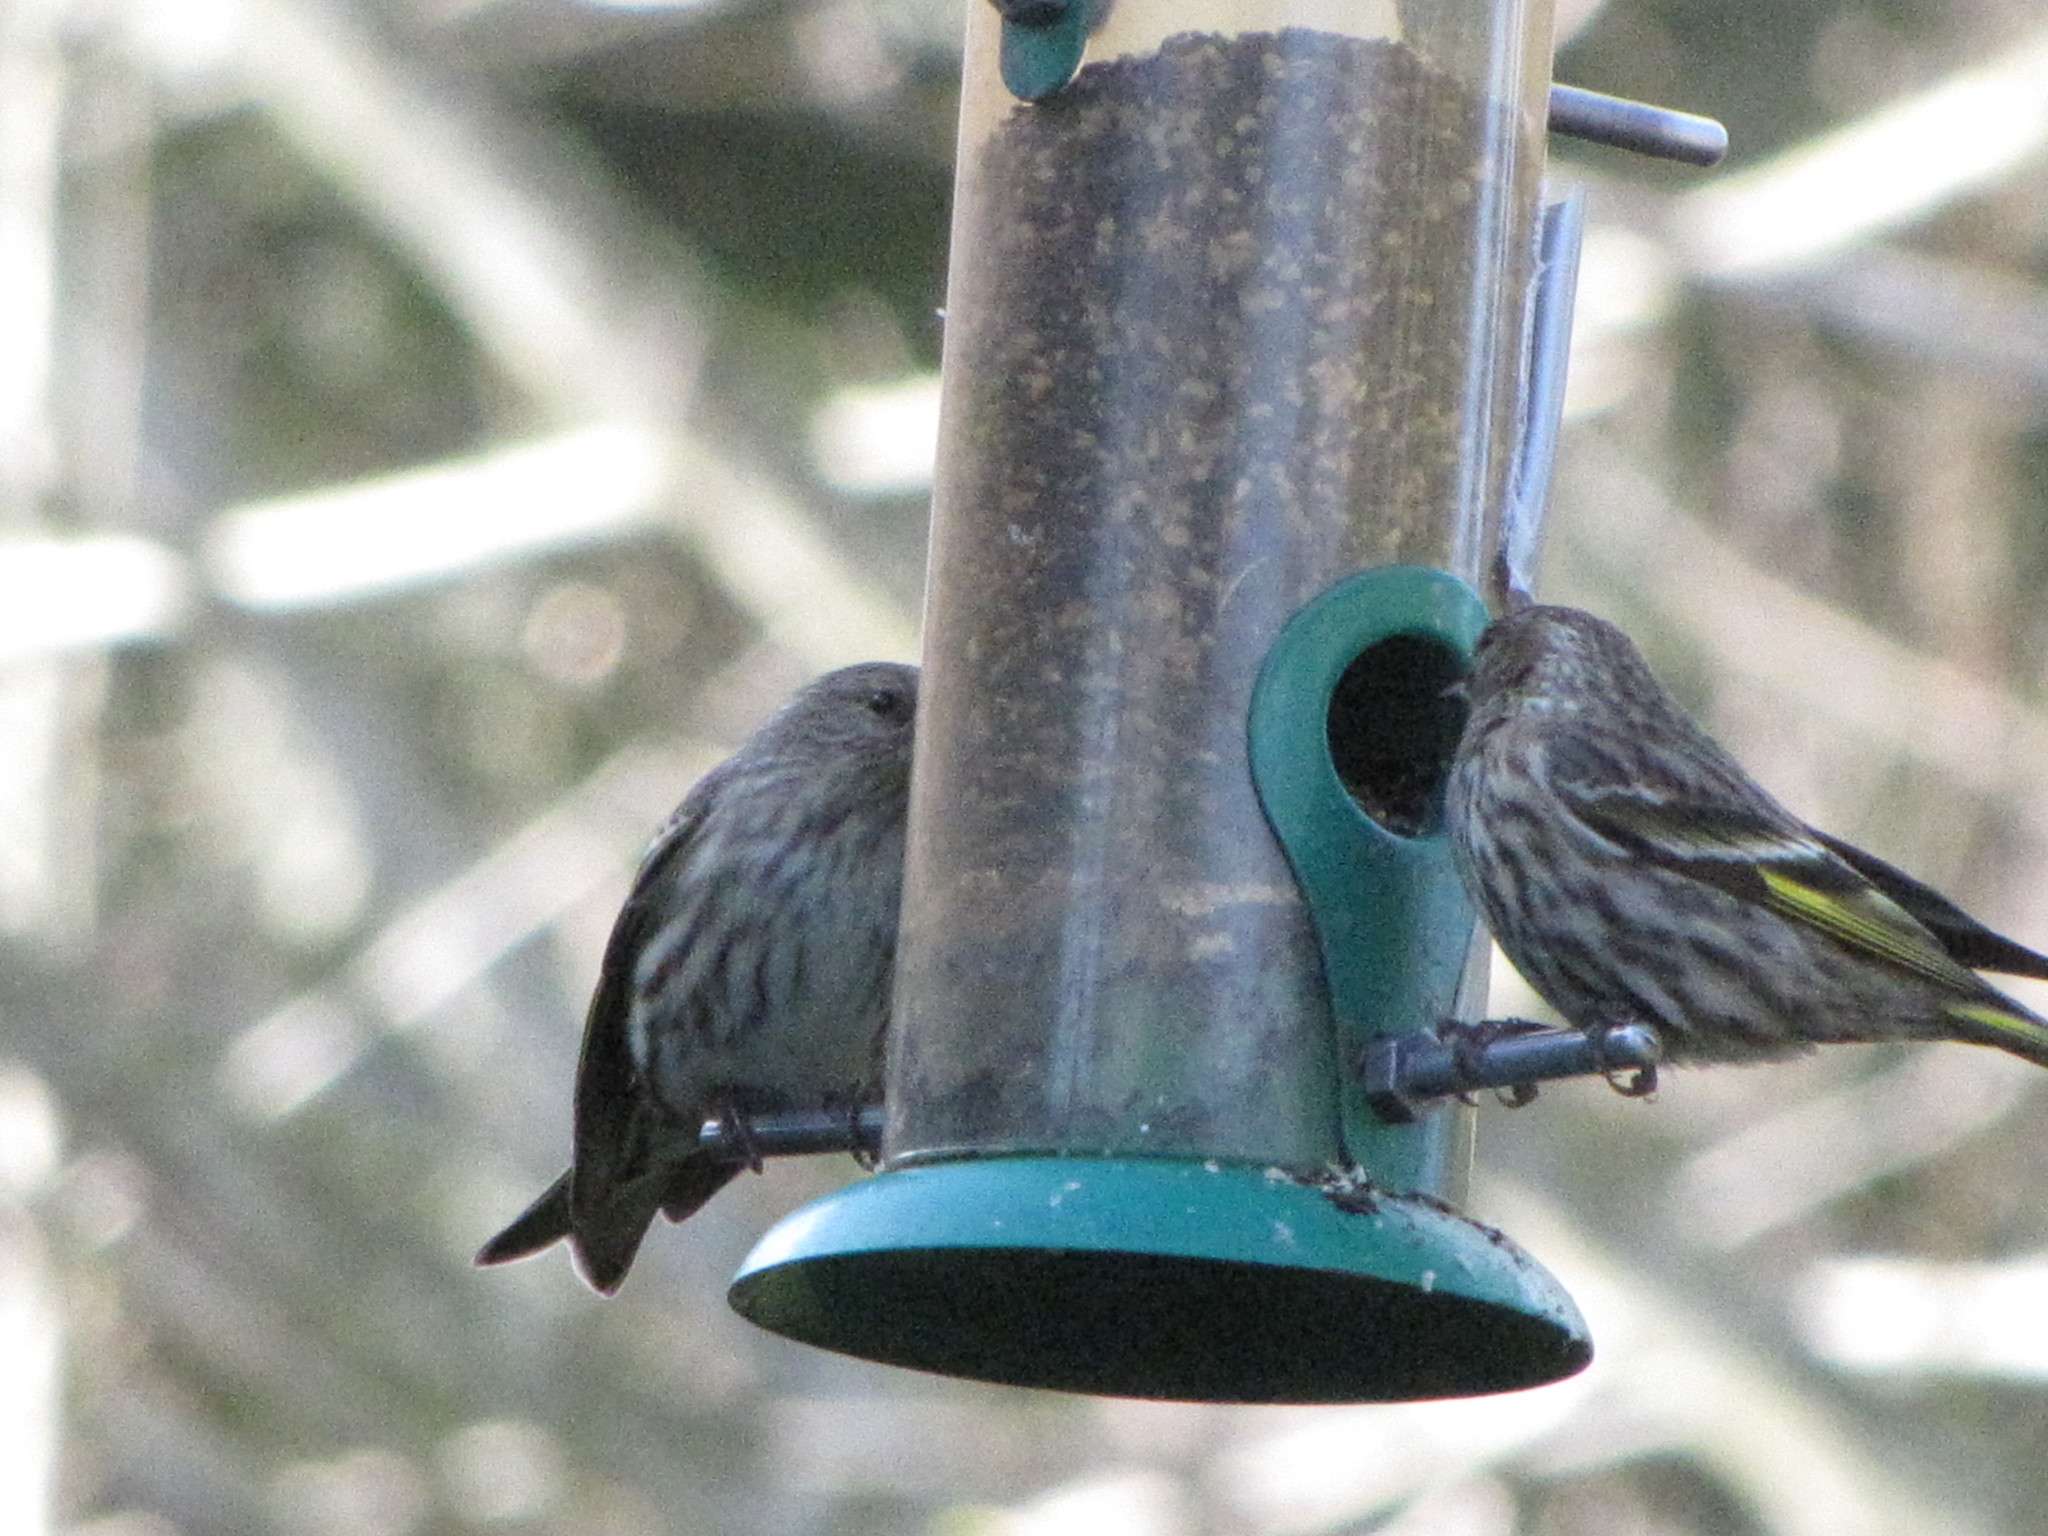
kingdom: Animalia
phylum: Chordata
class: Aves
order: Passeriformes
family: Fringillidae
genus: Spinus
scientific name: Spinus pinus
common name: Pine siskin
